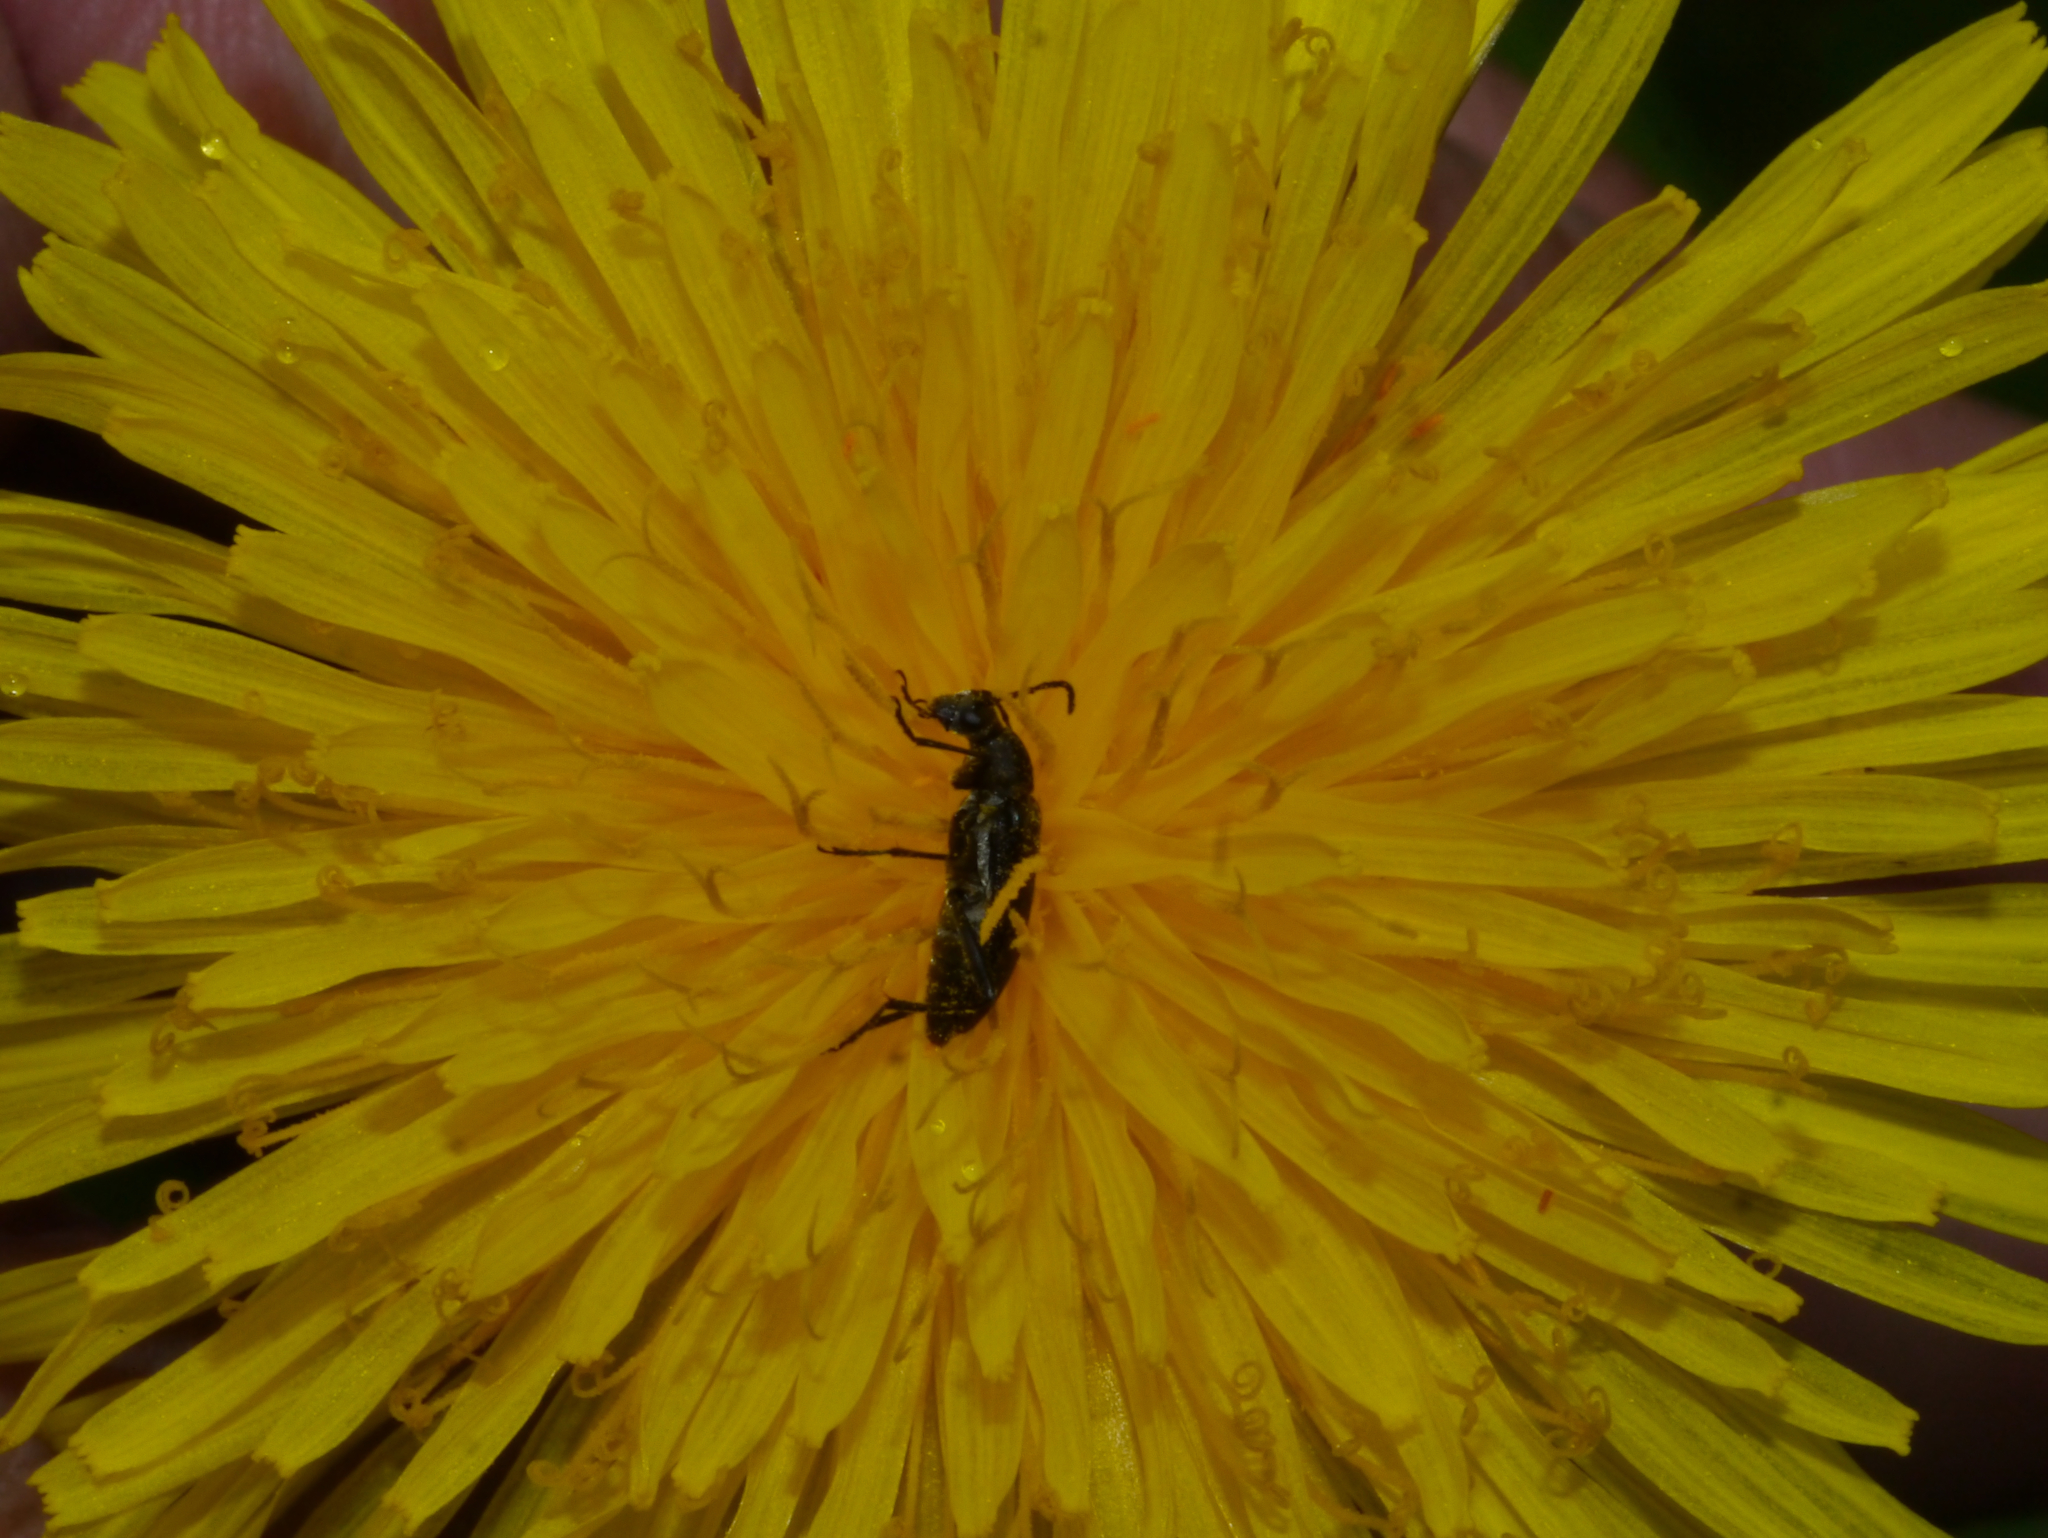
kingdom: Animalia
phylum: Arthropoda
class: Insecta
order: Coleoptera
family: Cerambycidae
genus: Grammoptera
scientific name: Grammoptera subargentata
